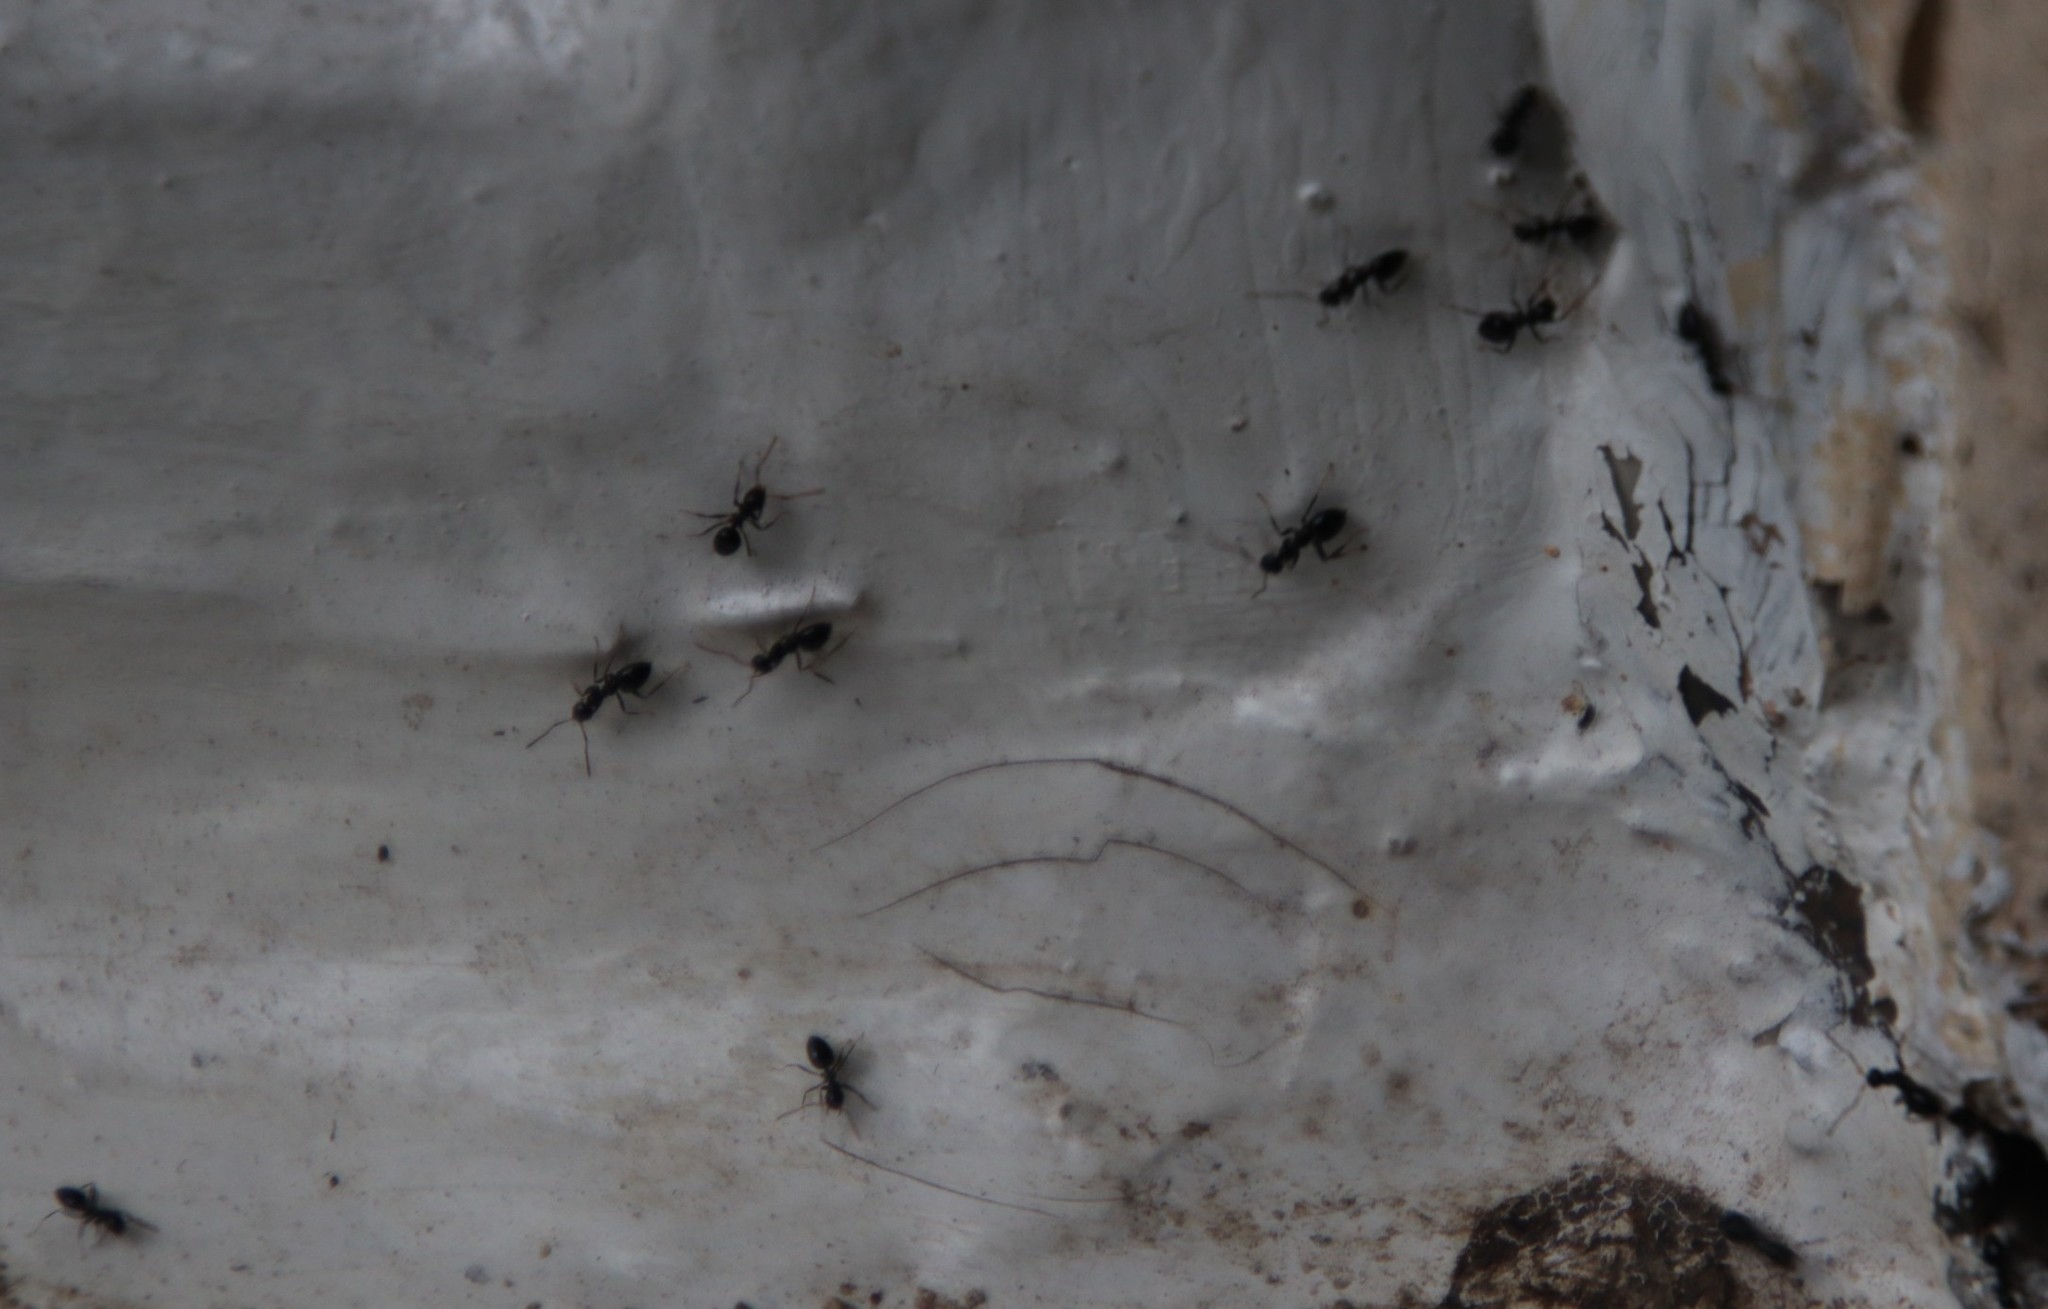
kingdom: Animalia
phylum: Arthropoda
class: Insecta
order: Hymenoptera
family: Formicidae
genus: Lepisiota
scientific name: Lepisiota incisa
